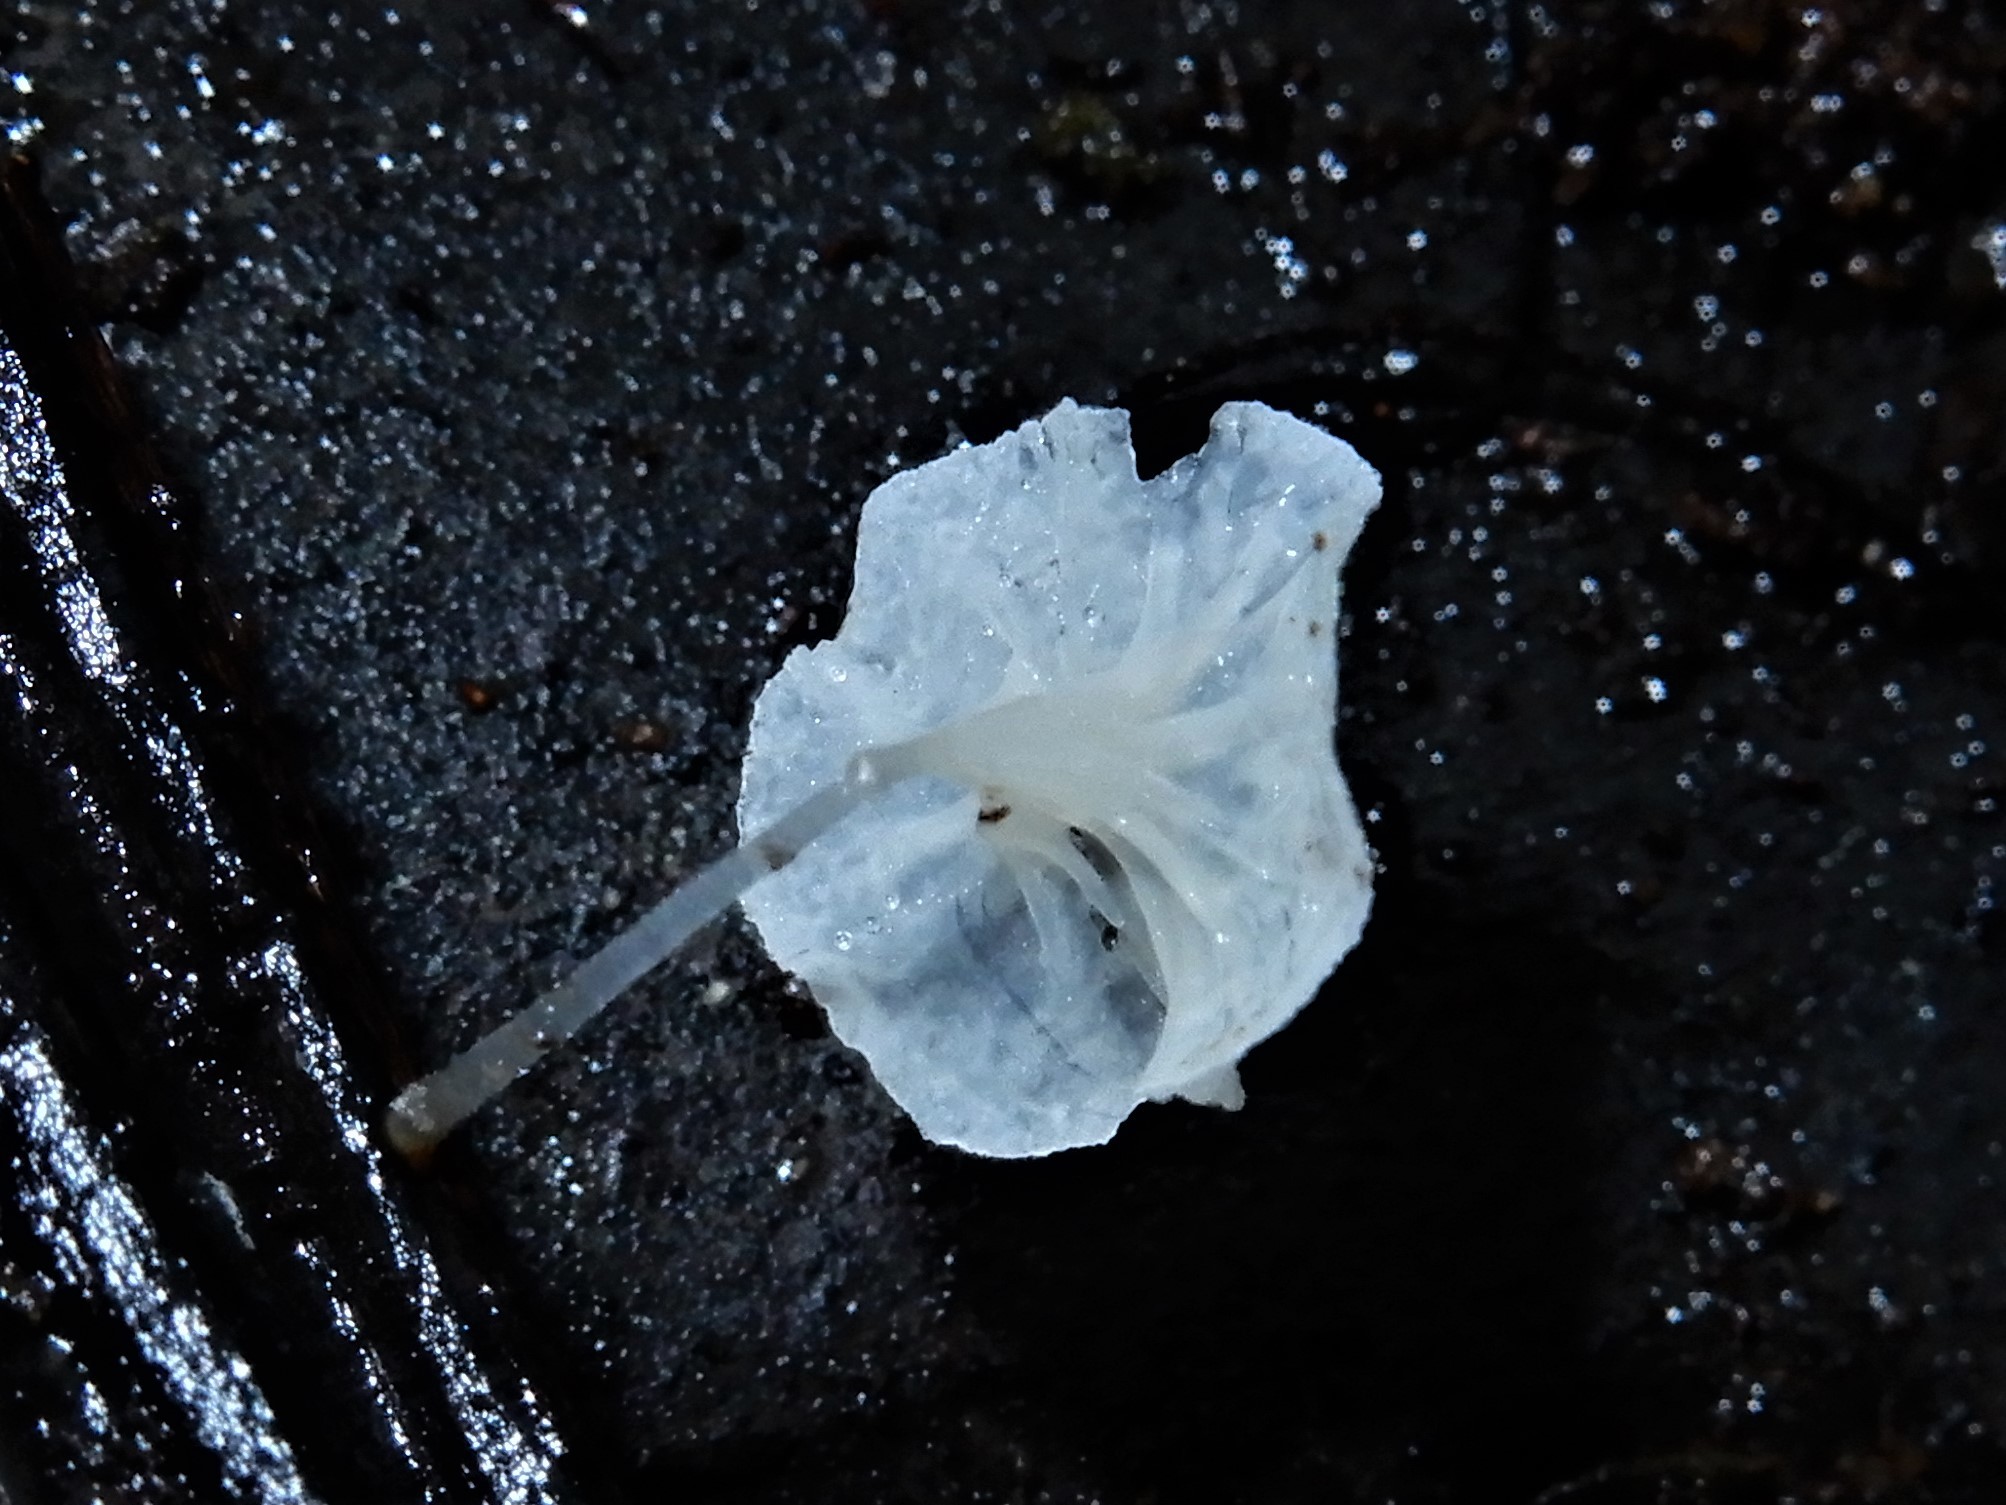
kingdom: Fungi
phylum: Basidiomycota
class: Agaricomycetes
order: Agaricales
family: Mycenaceae
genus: Hemimycena
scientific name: Hemimycena hirsuta
